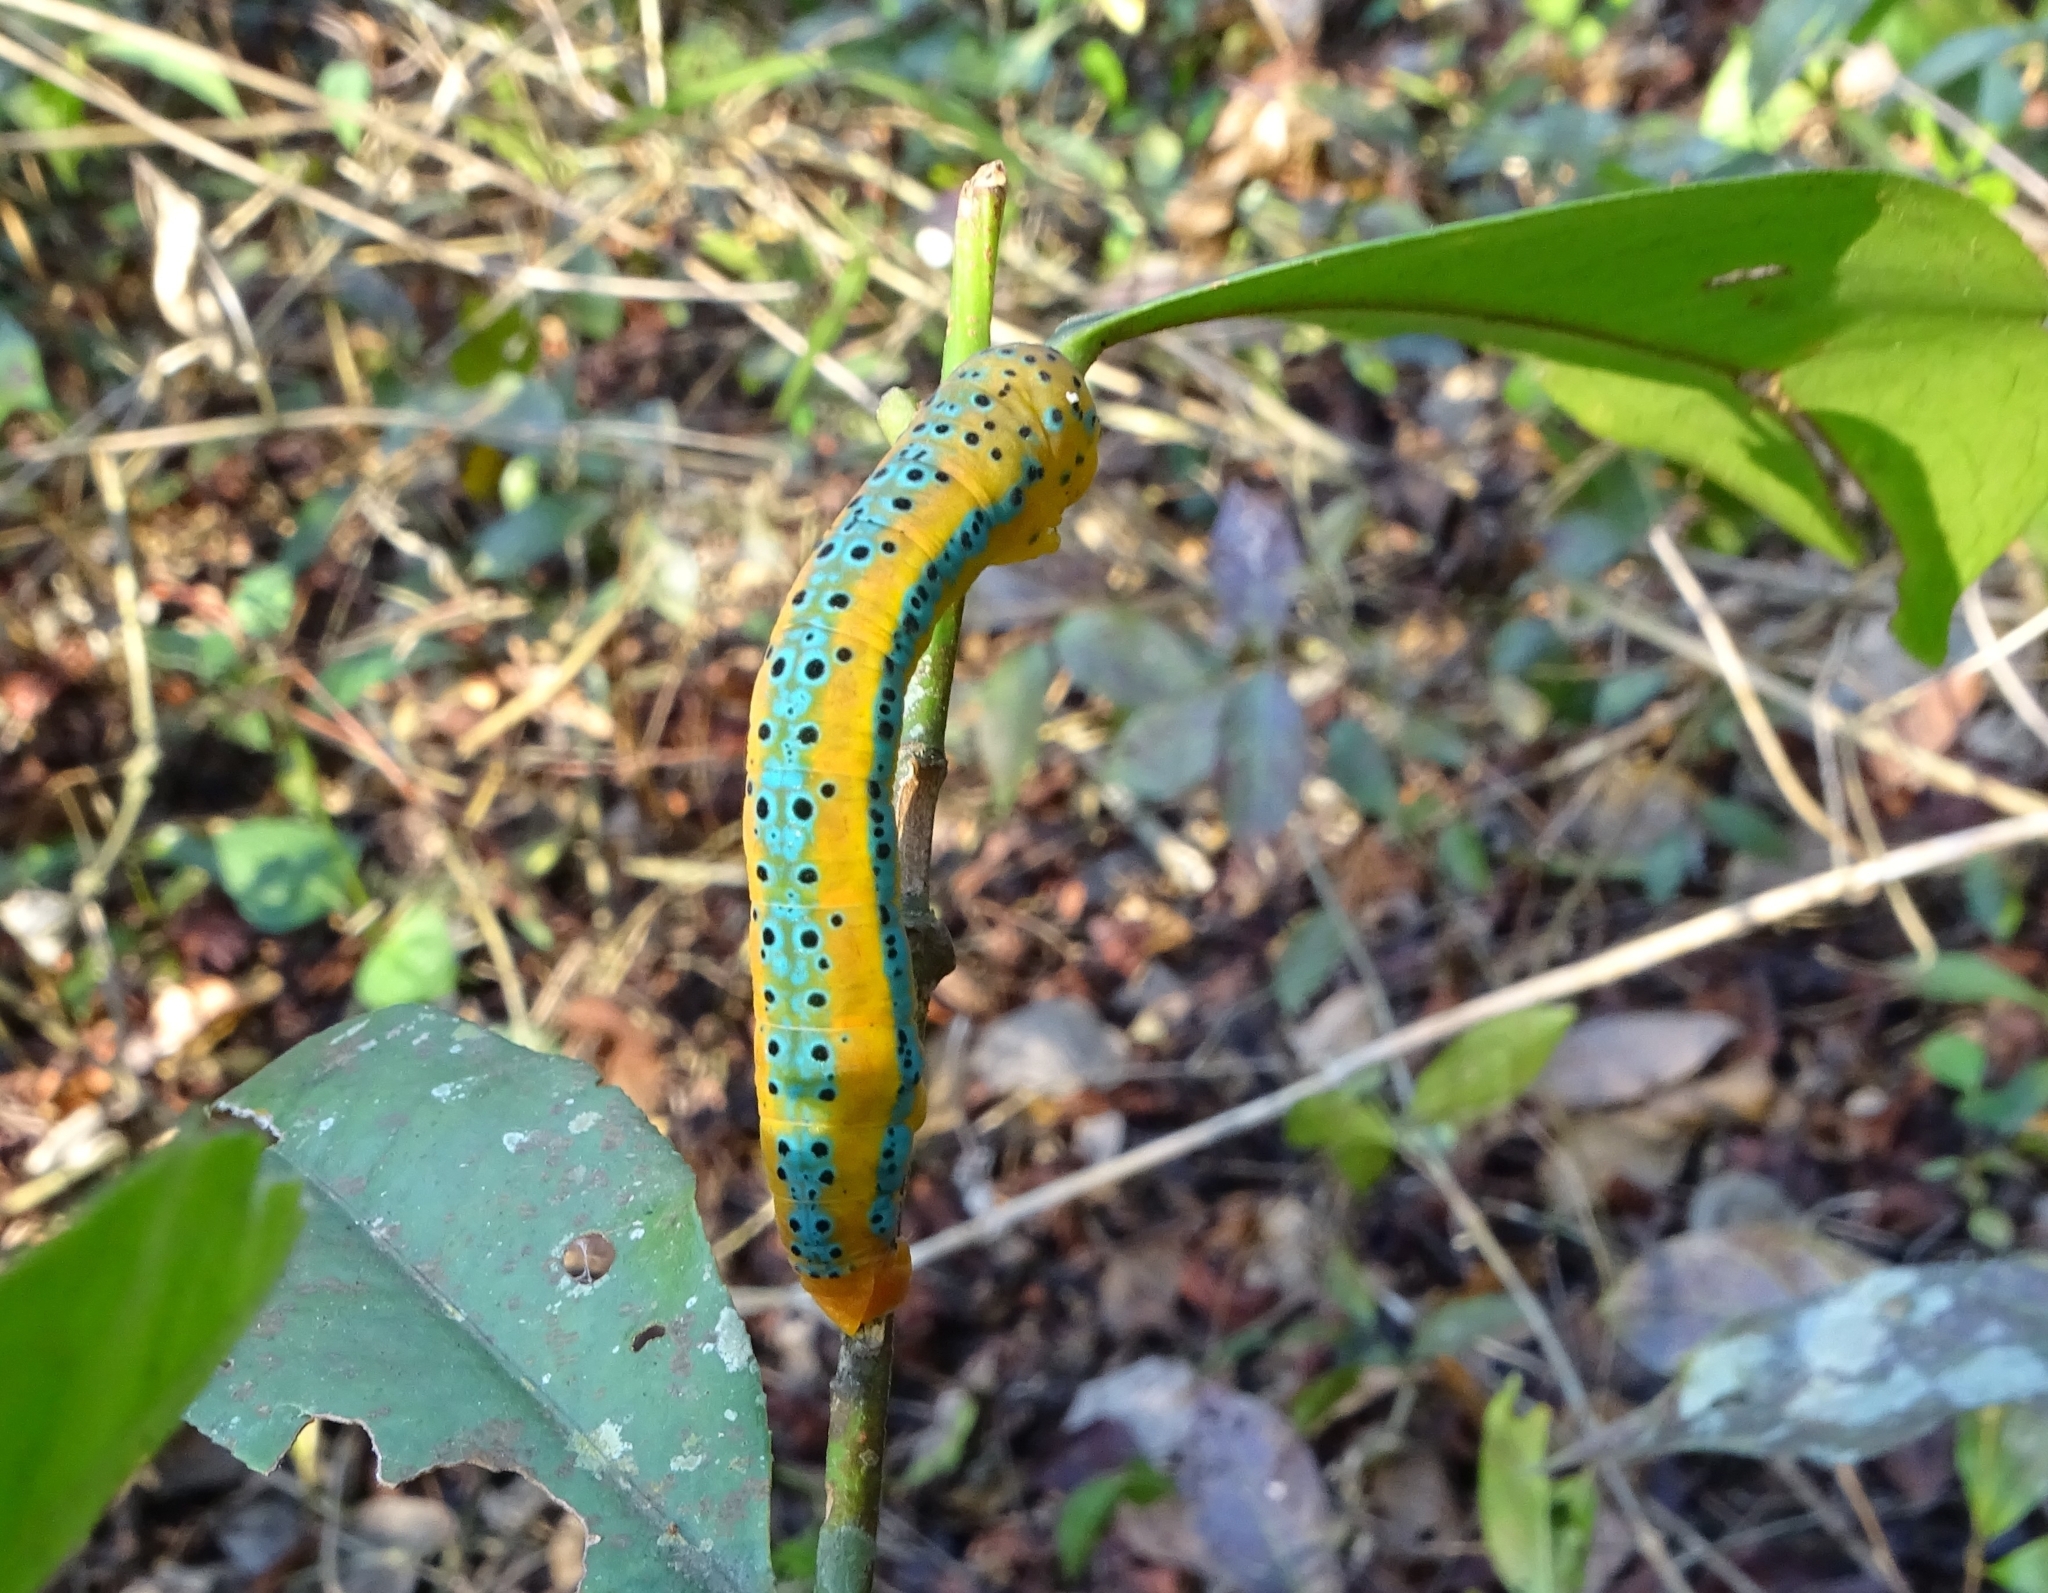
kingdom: Animalia
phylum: Arthropoda
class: Insecta
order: Lepidoptera
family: Geometridae
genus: Dysphania
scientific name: Dysphania percota
